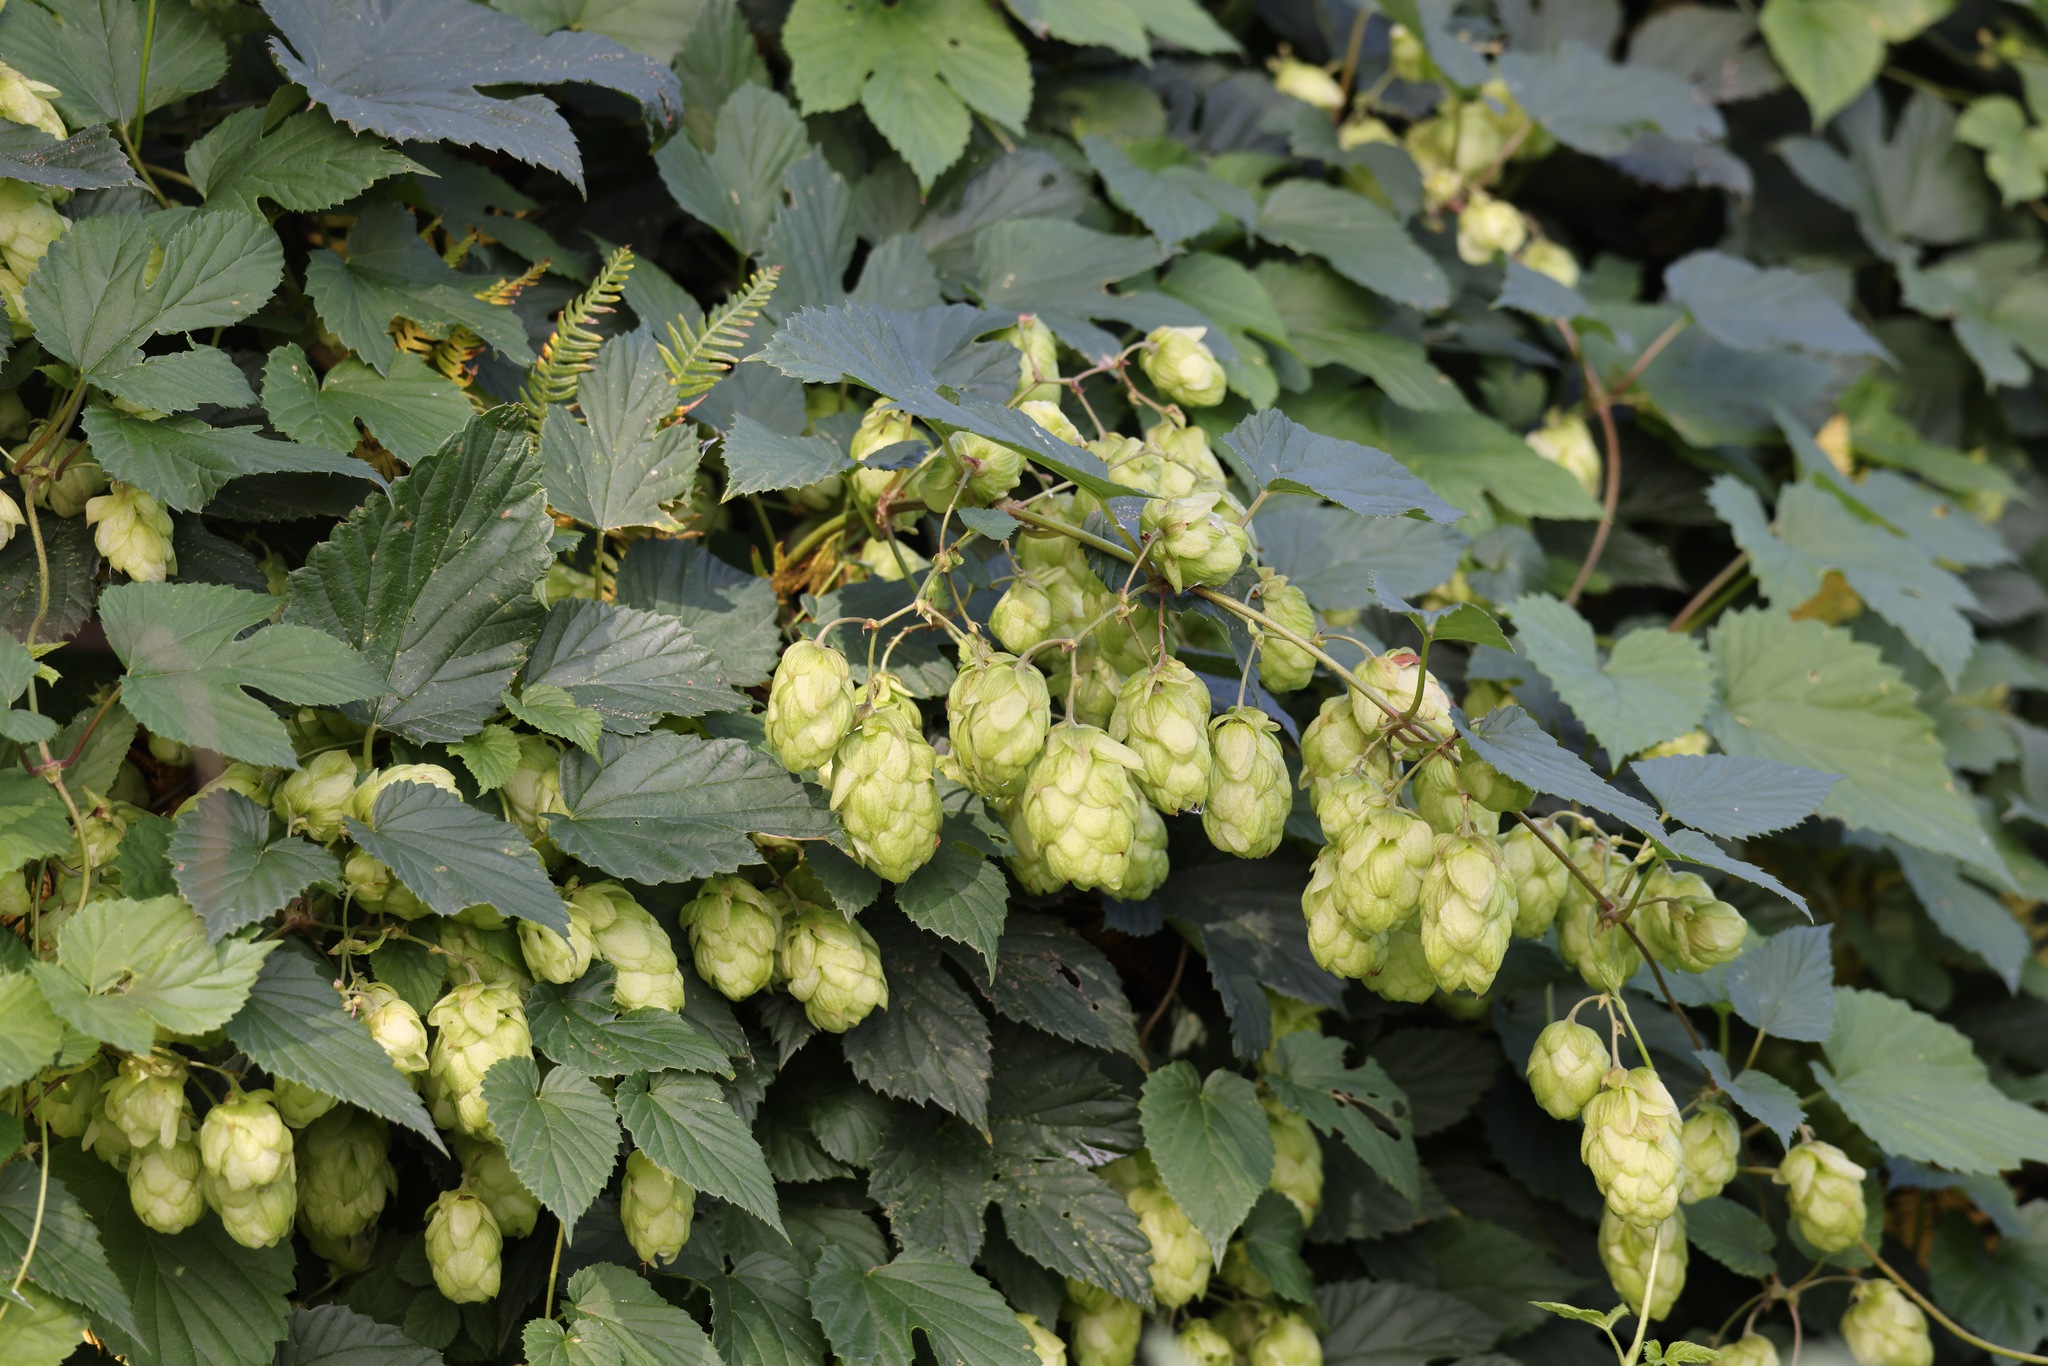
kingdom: Plantae
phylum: Tracheophyta
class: Magnoliopsida
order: Rosales
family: Cannabaceae
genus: Humulus
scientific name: Humulus lupulus
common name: Hop
